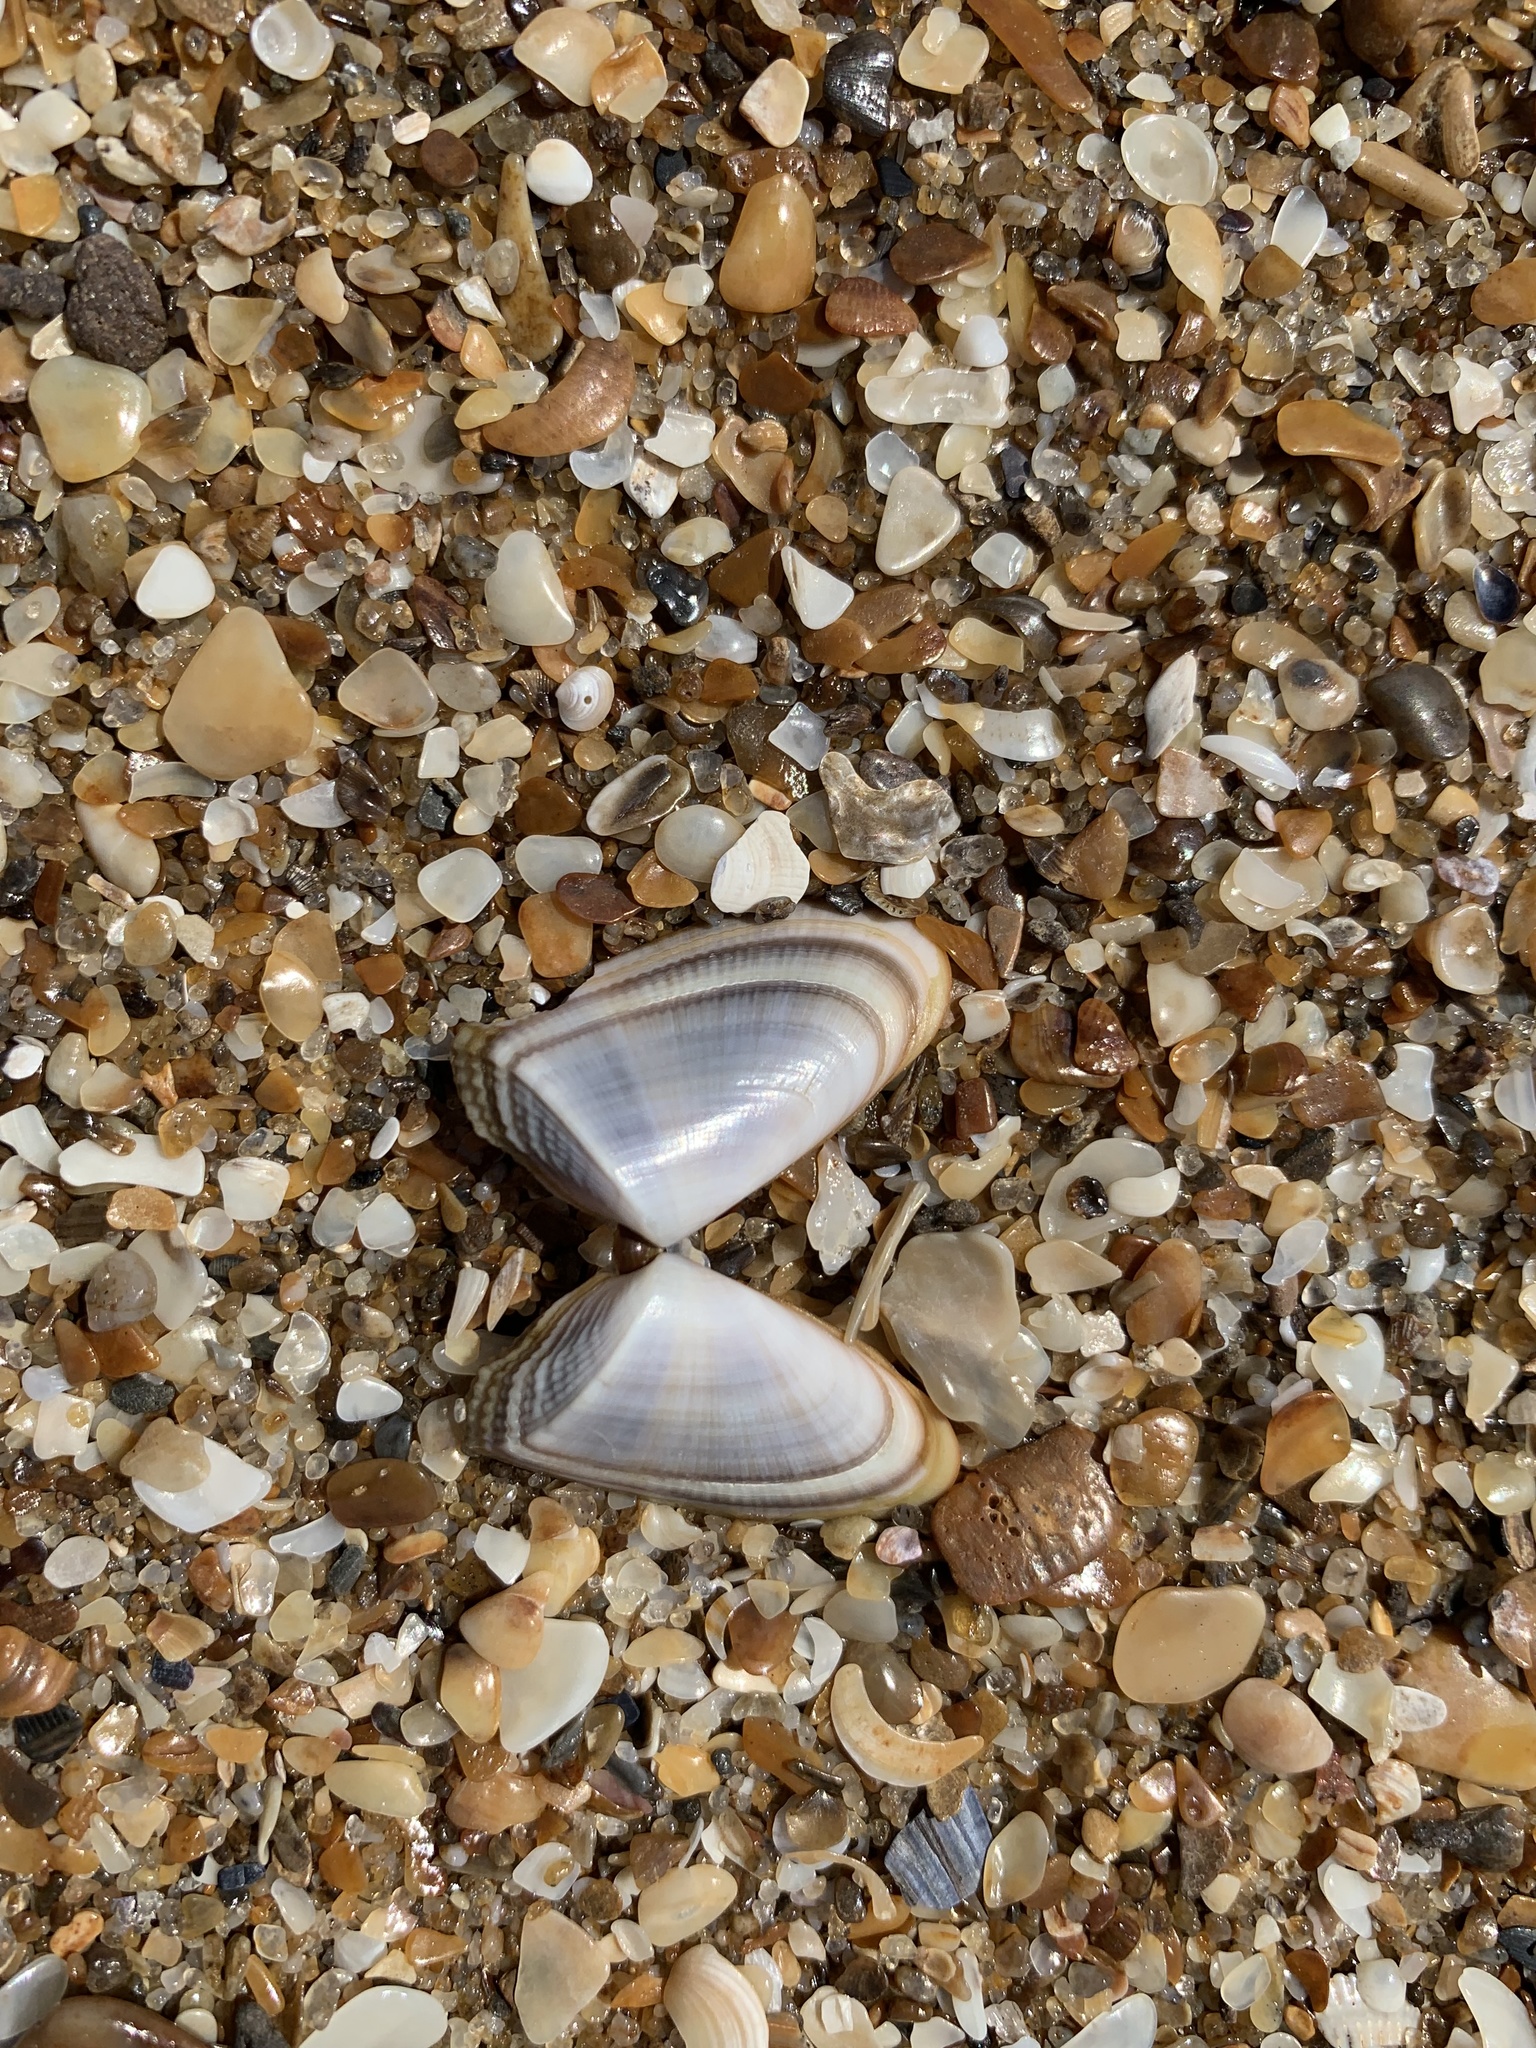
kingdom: Animalia
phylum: Mollusca
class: Bivalvia
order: Cardiida
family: Donacidae
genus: Donax
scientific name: Donax hanleyanus
